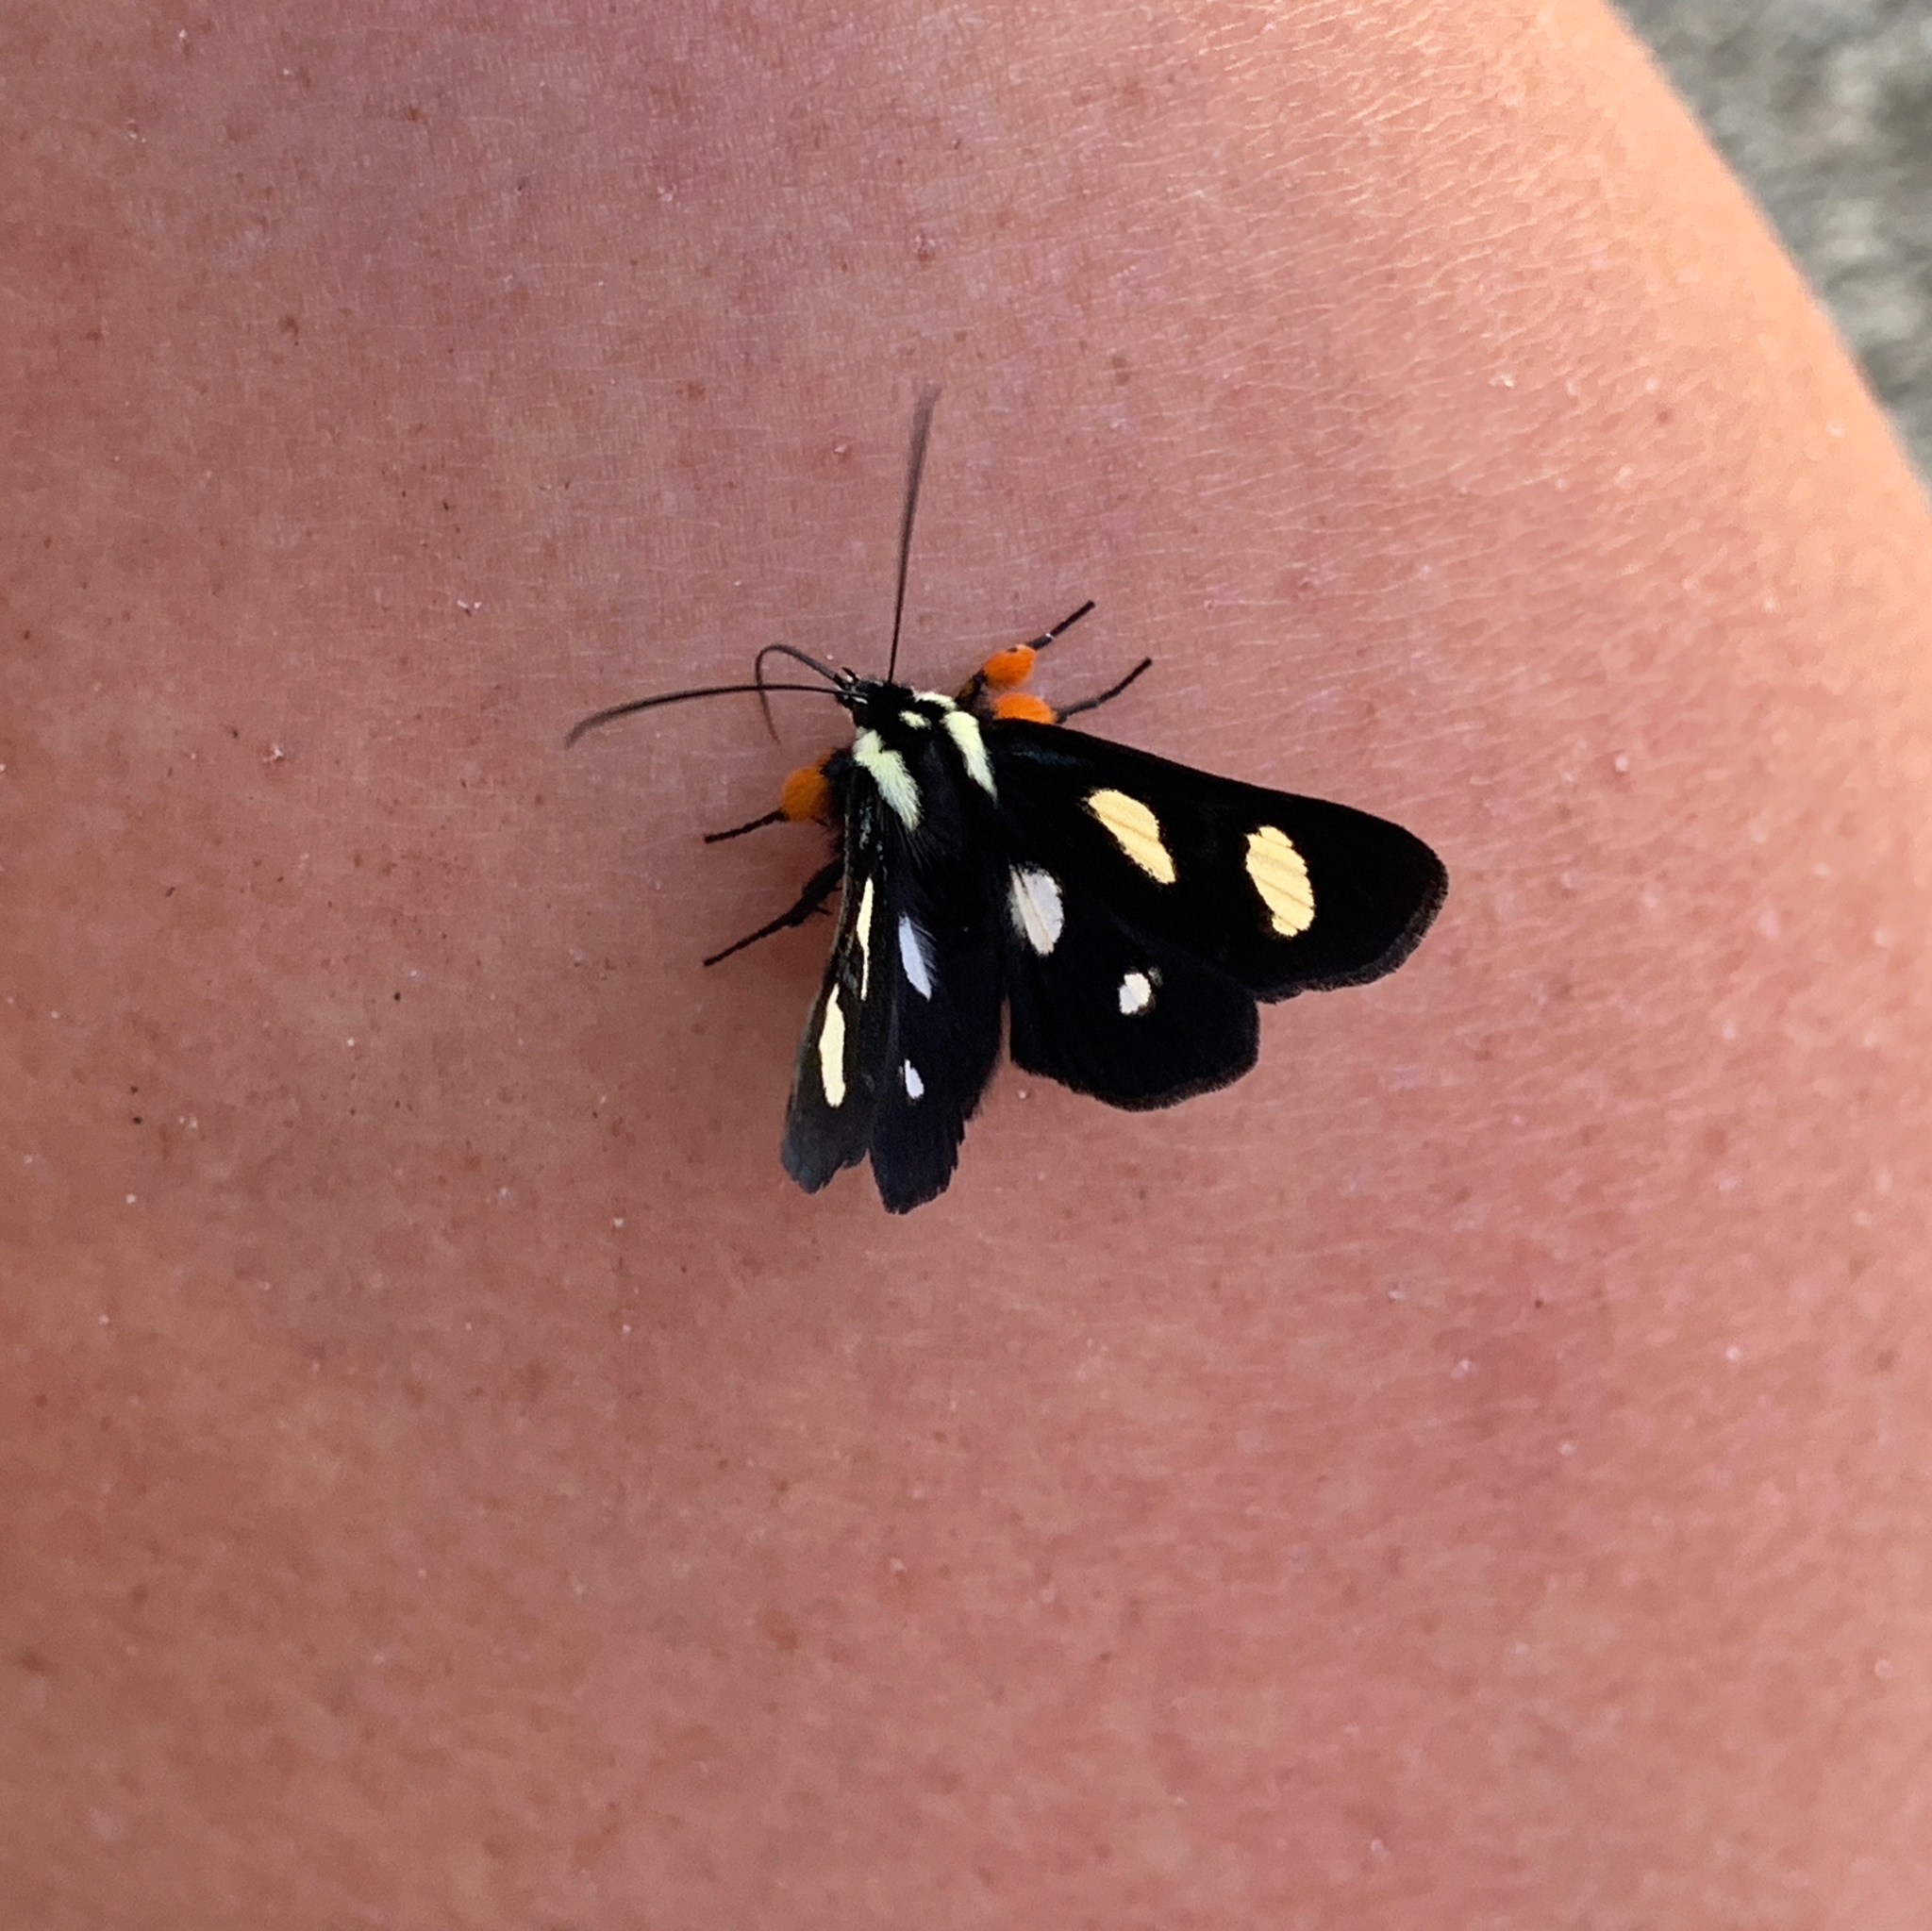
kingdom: Animalia
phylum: Arthropoda
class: Insecta
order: Lepidoptera
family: Noctuidae
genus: Alypia
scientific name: Alypia octomaculata
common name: Eight-spotted forester
